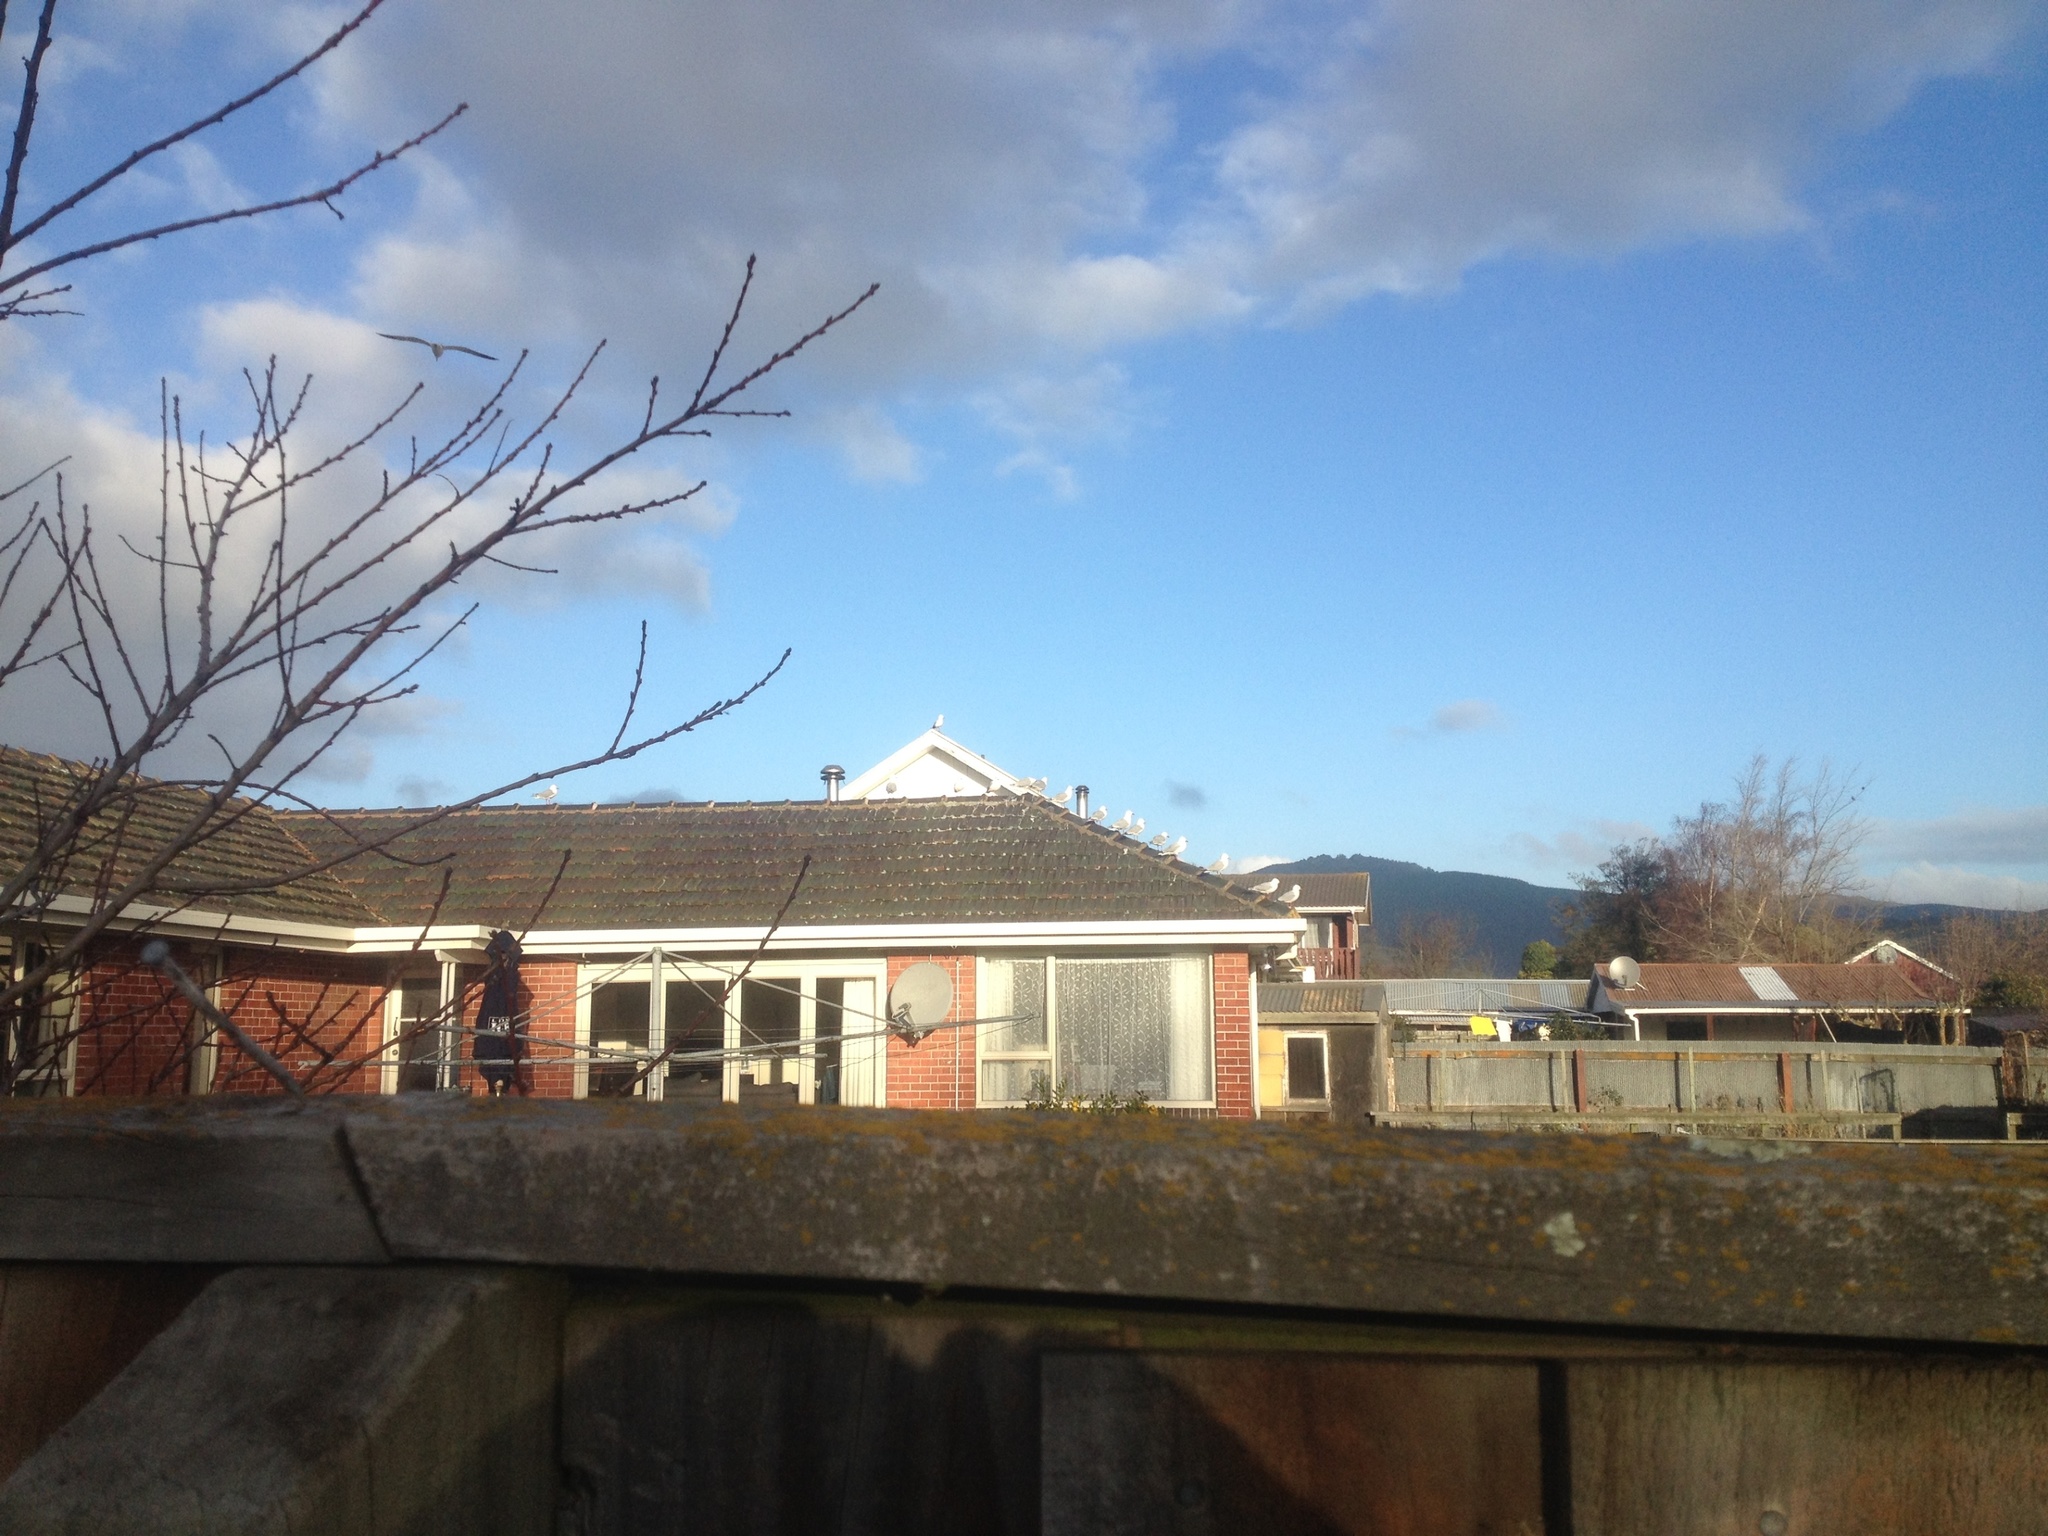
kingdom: Animalia
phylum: Chordata
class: Aves
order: Charadriiformes
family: Laridae
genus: Chroicocephalus
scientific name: Chroicocephalus novaehollandiae
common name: Silver gull
